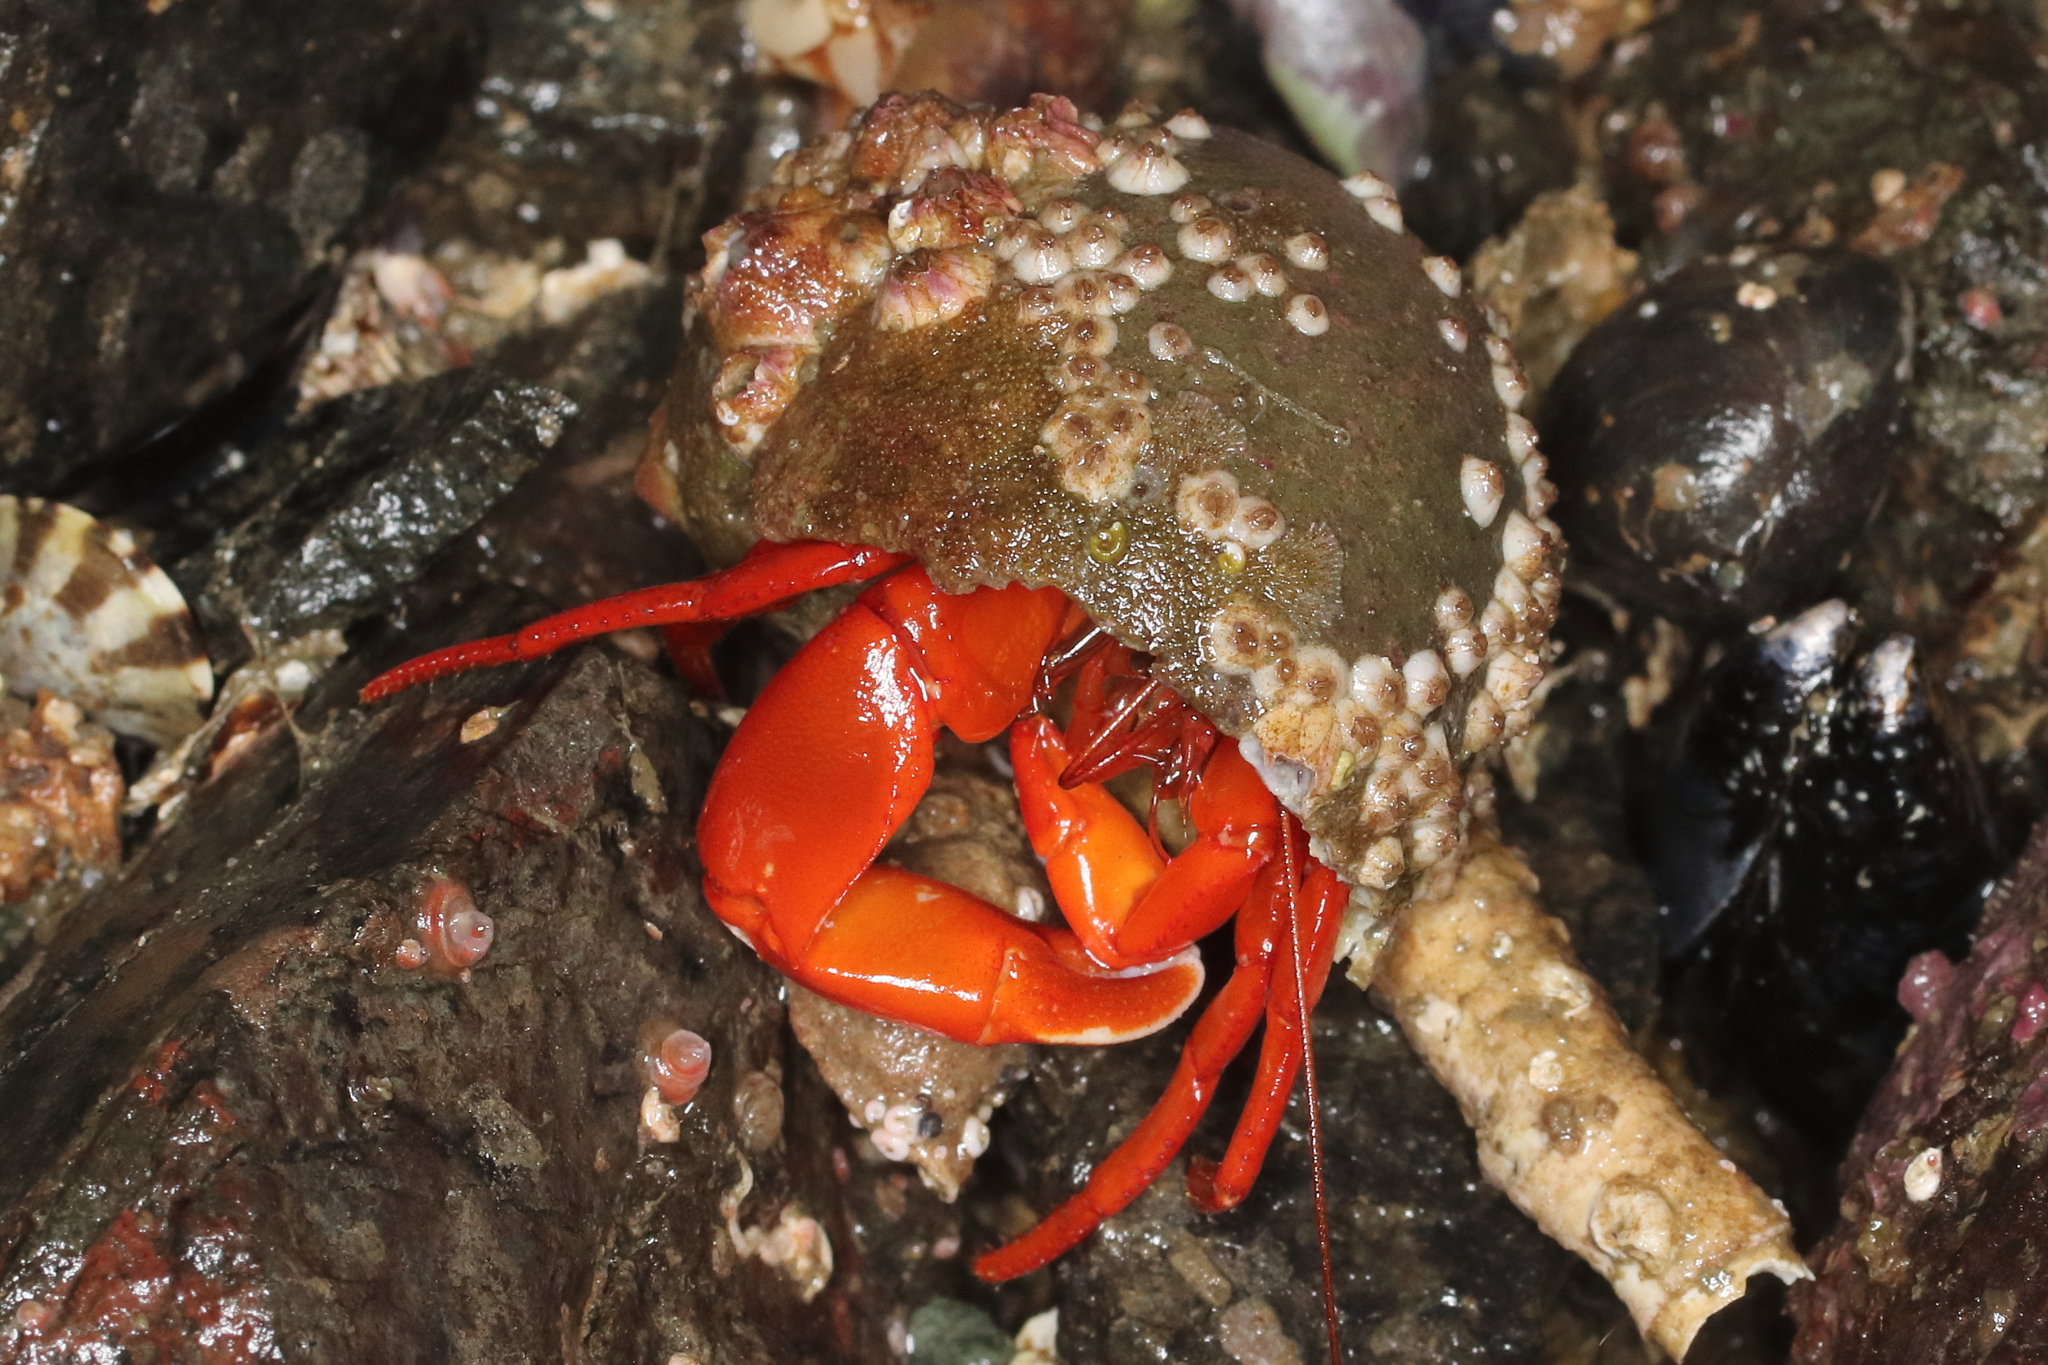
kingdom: Animalia
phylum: Arthropoda
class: Malacostraca
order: Decapoda
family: Paguridae
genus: Elassochirus
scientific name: Elassochirus gilli
